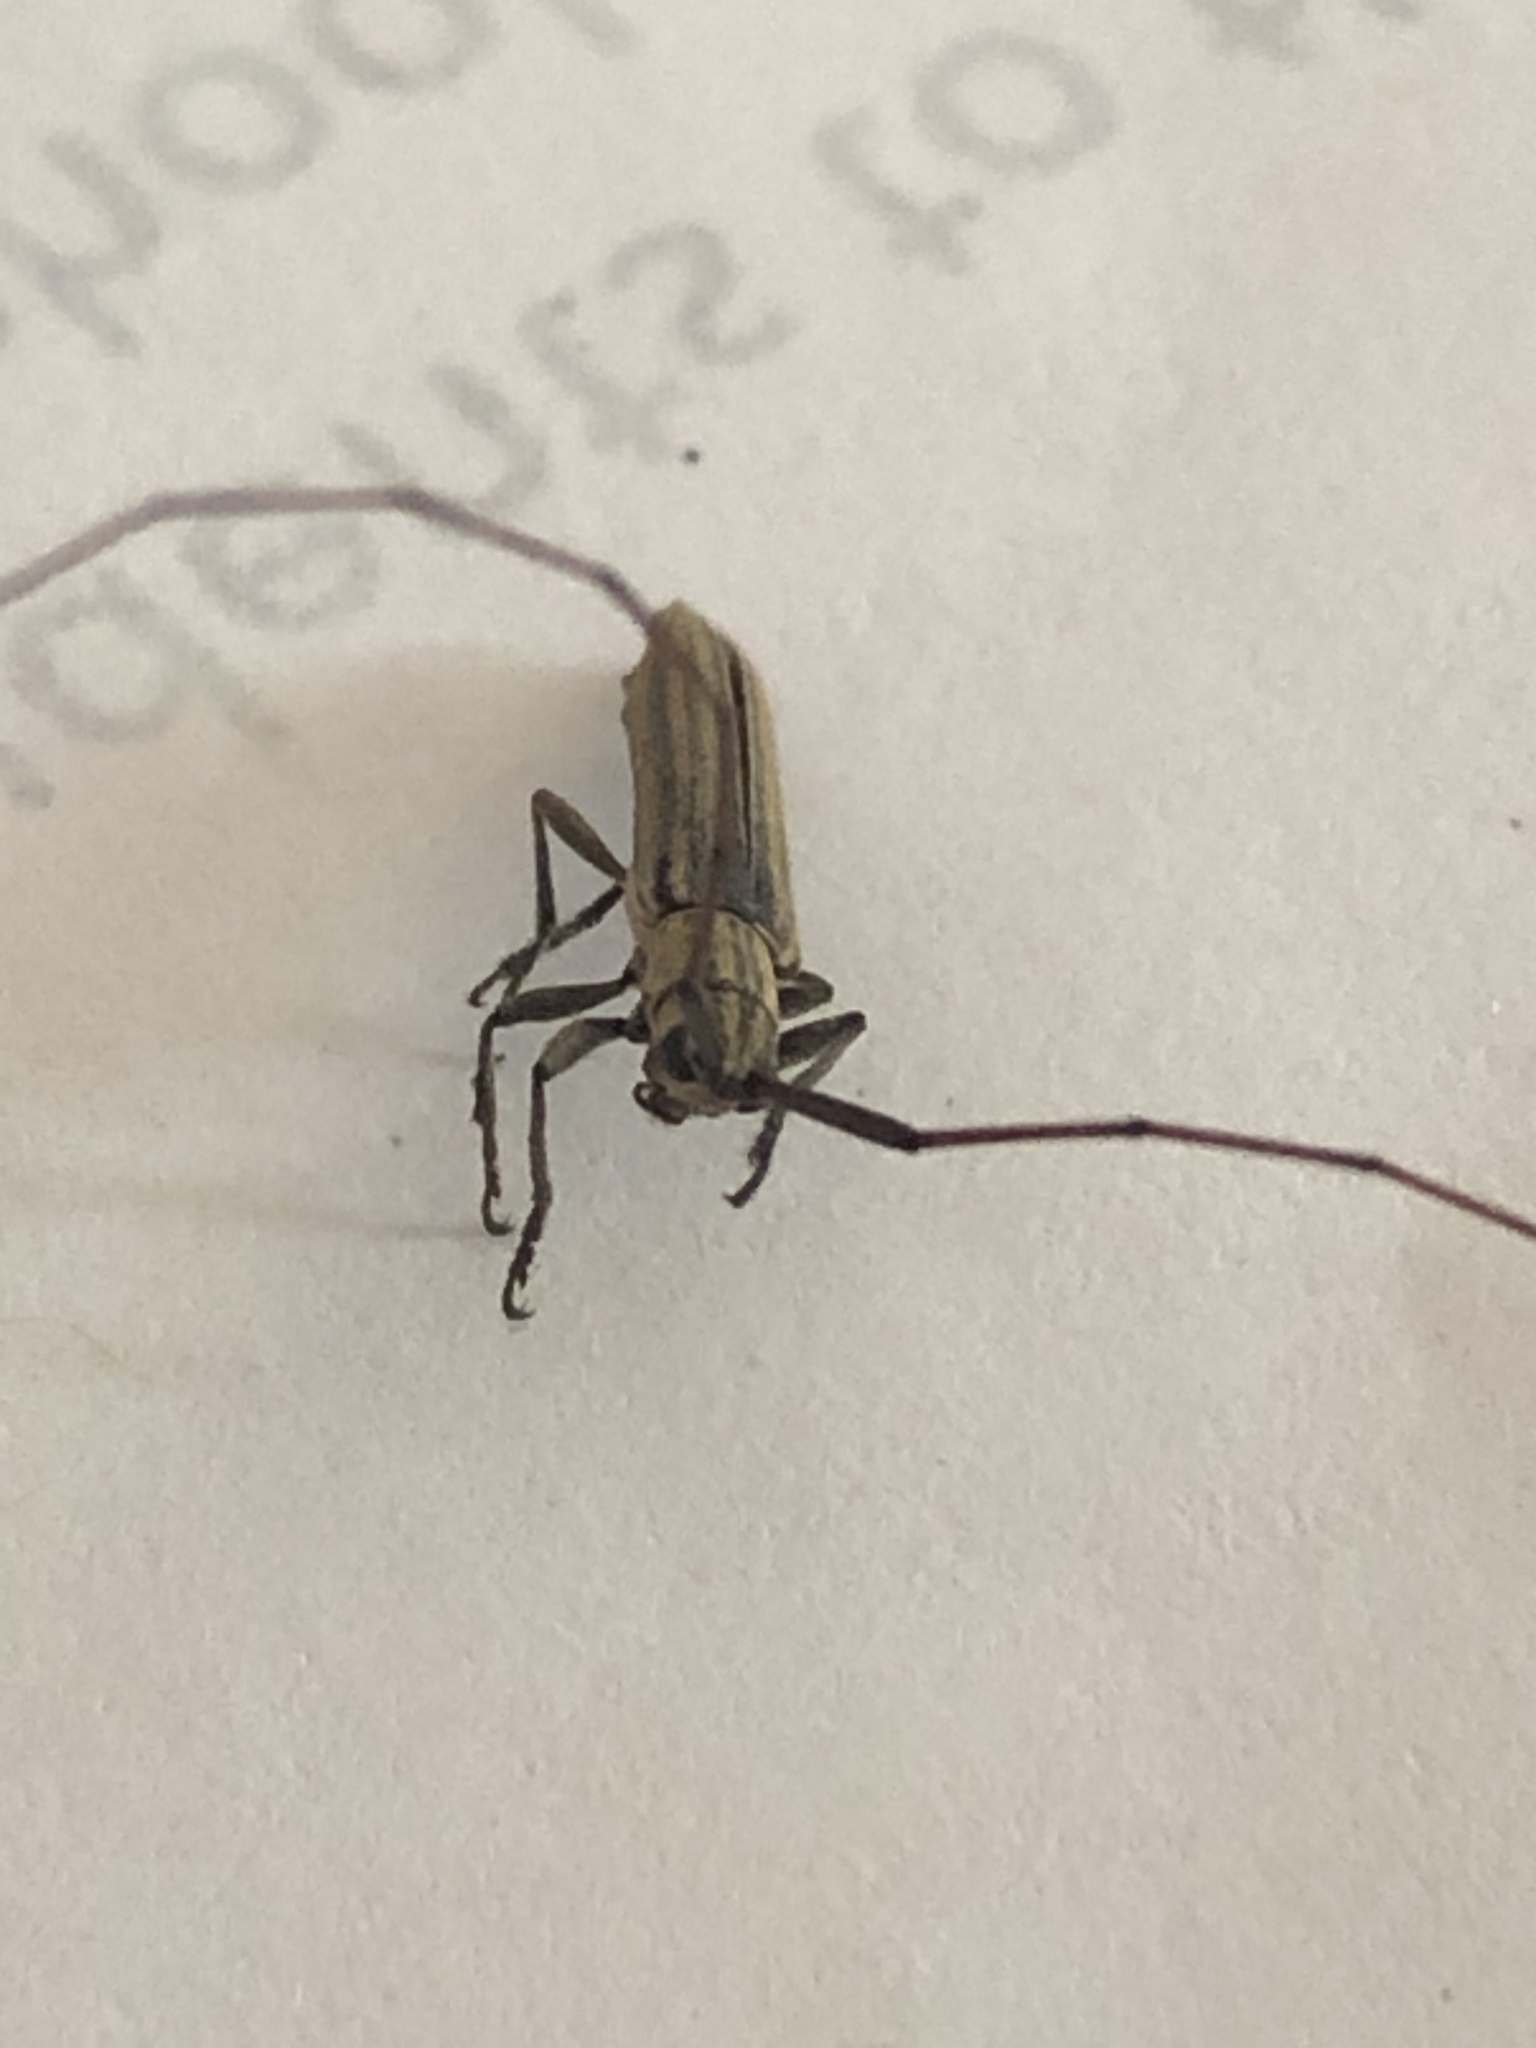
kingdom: Animalia
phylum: Arthropoda
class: Insecta
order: Coleoptera
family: Cerambycidae
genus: Hippopsis
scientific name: Hippopsis
